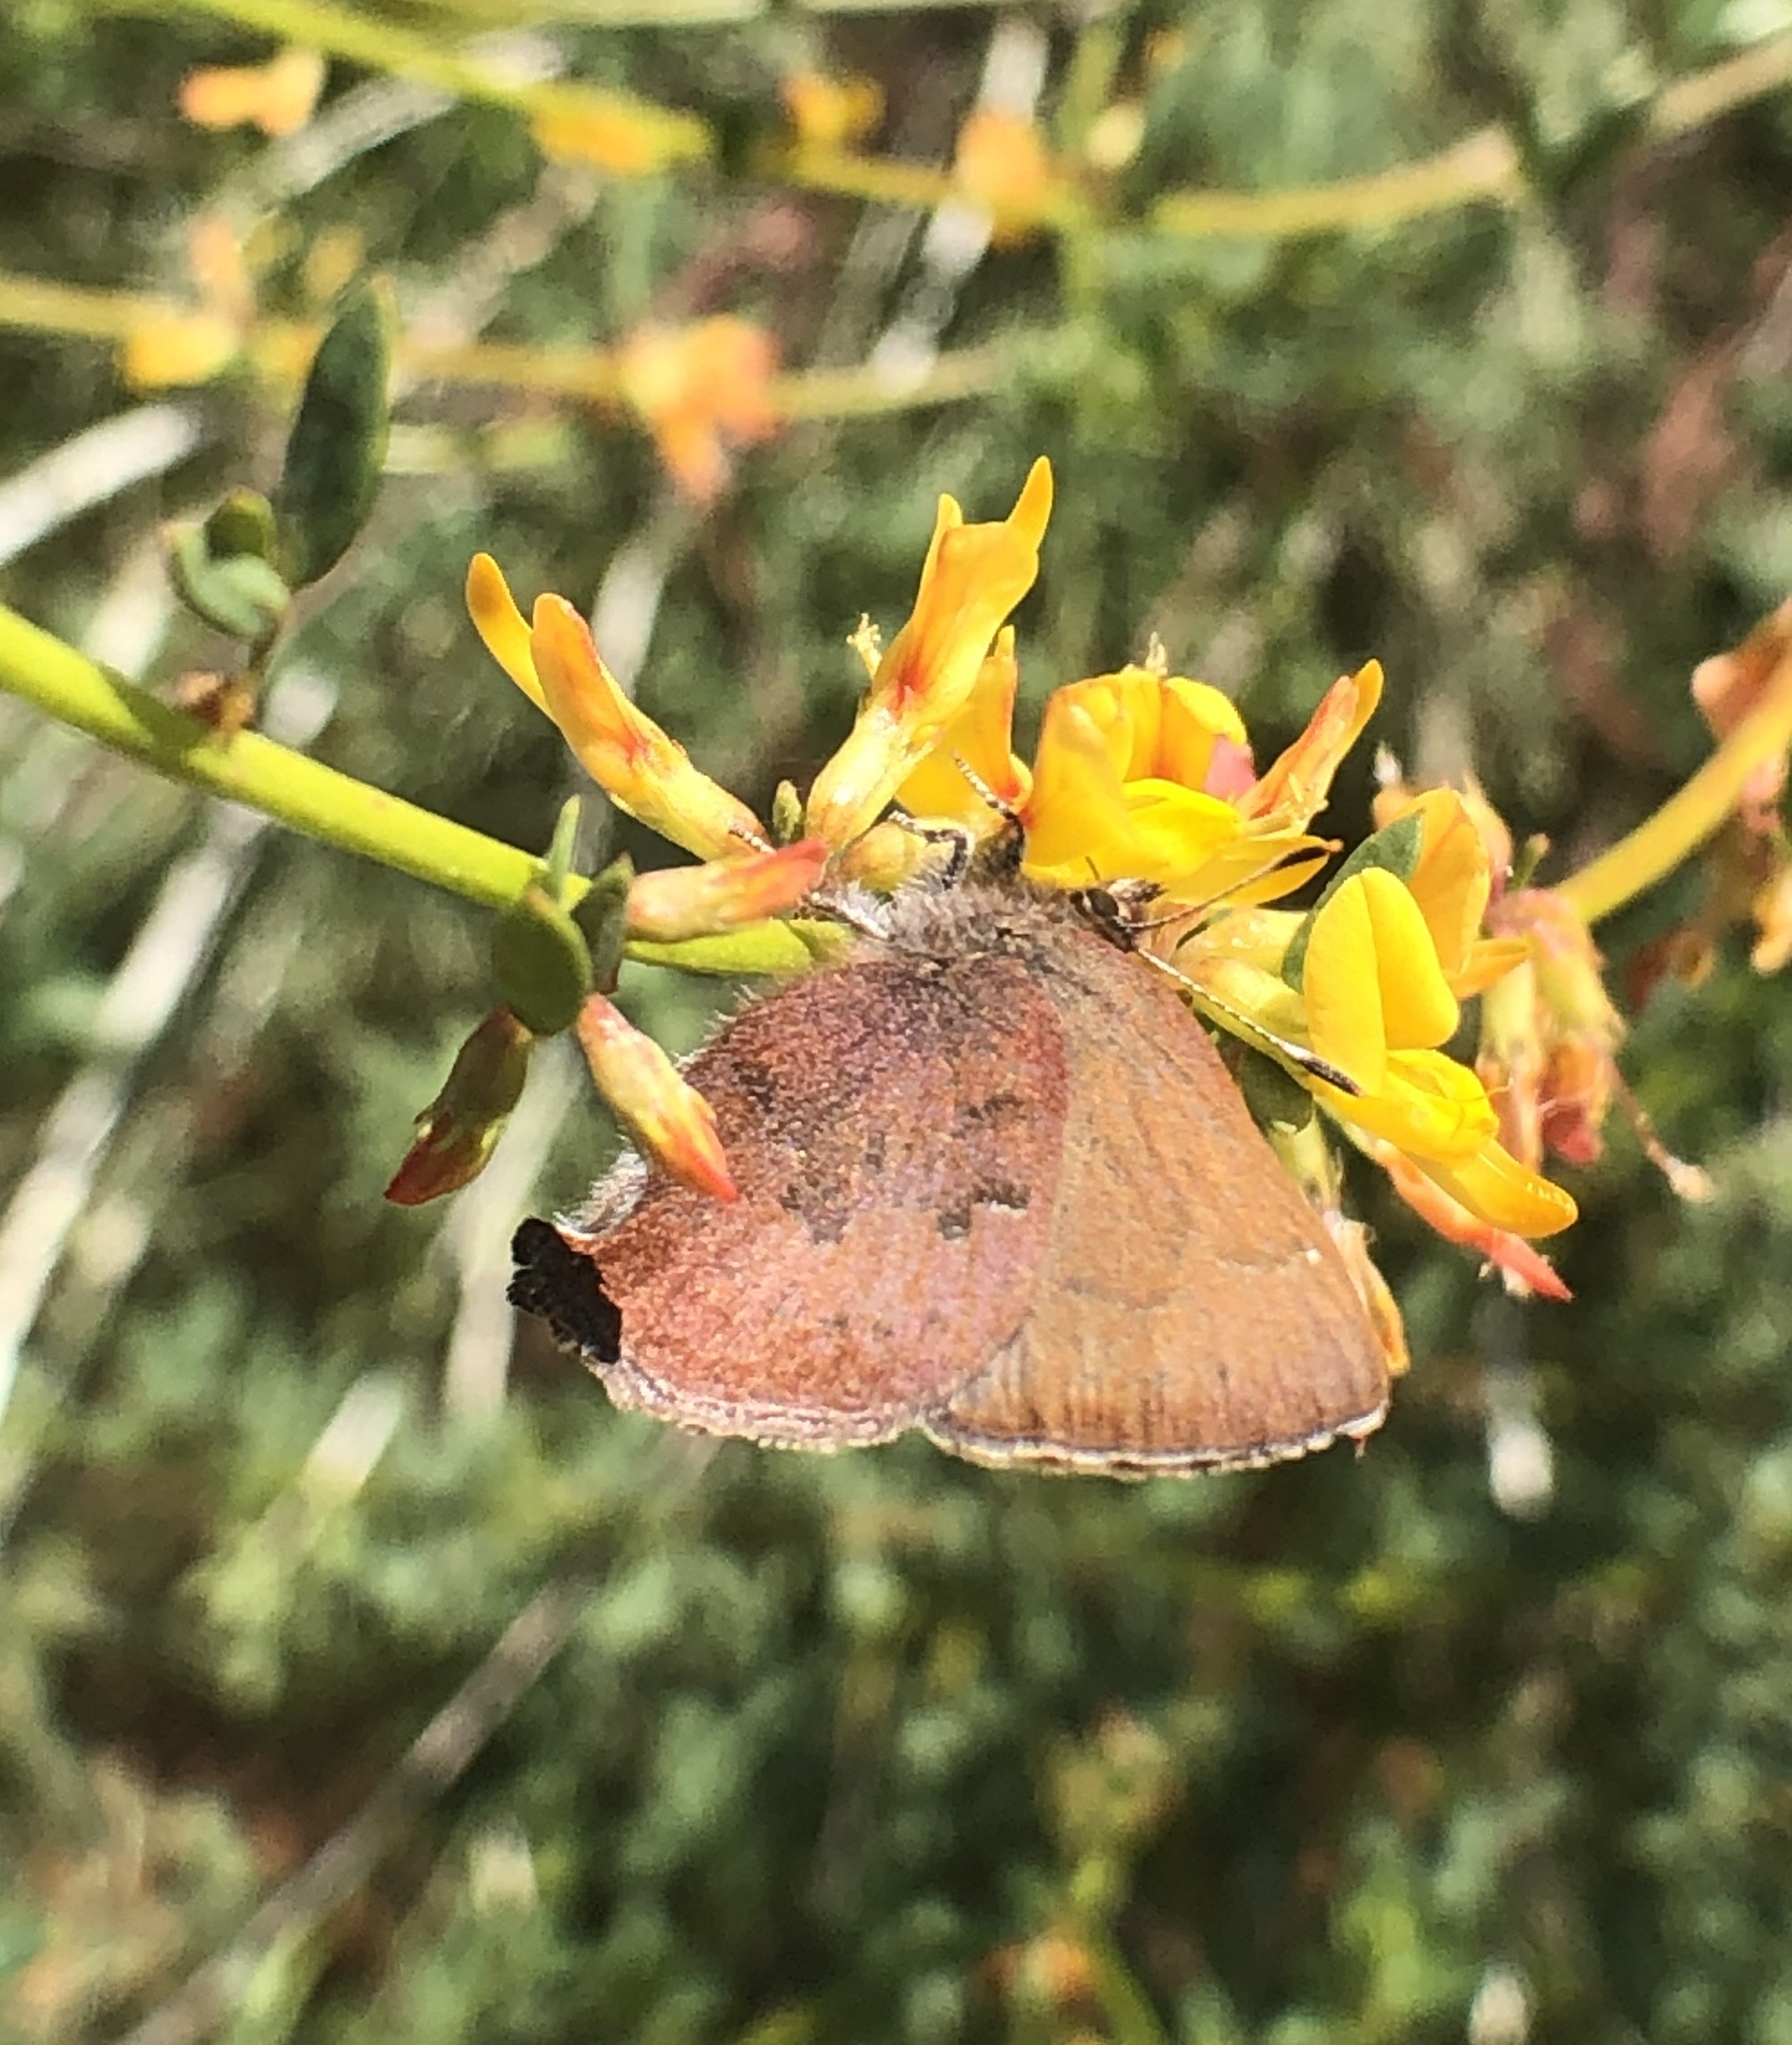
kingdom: Animalia
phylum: Arthropoda
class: Insecta
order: Lepidoptera
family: Lycaenidae
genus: Incisalia
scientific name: Incisalia irioides
